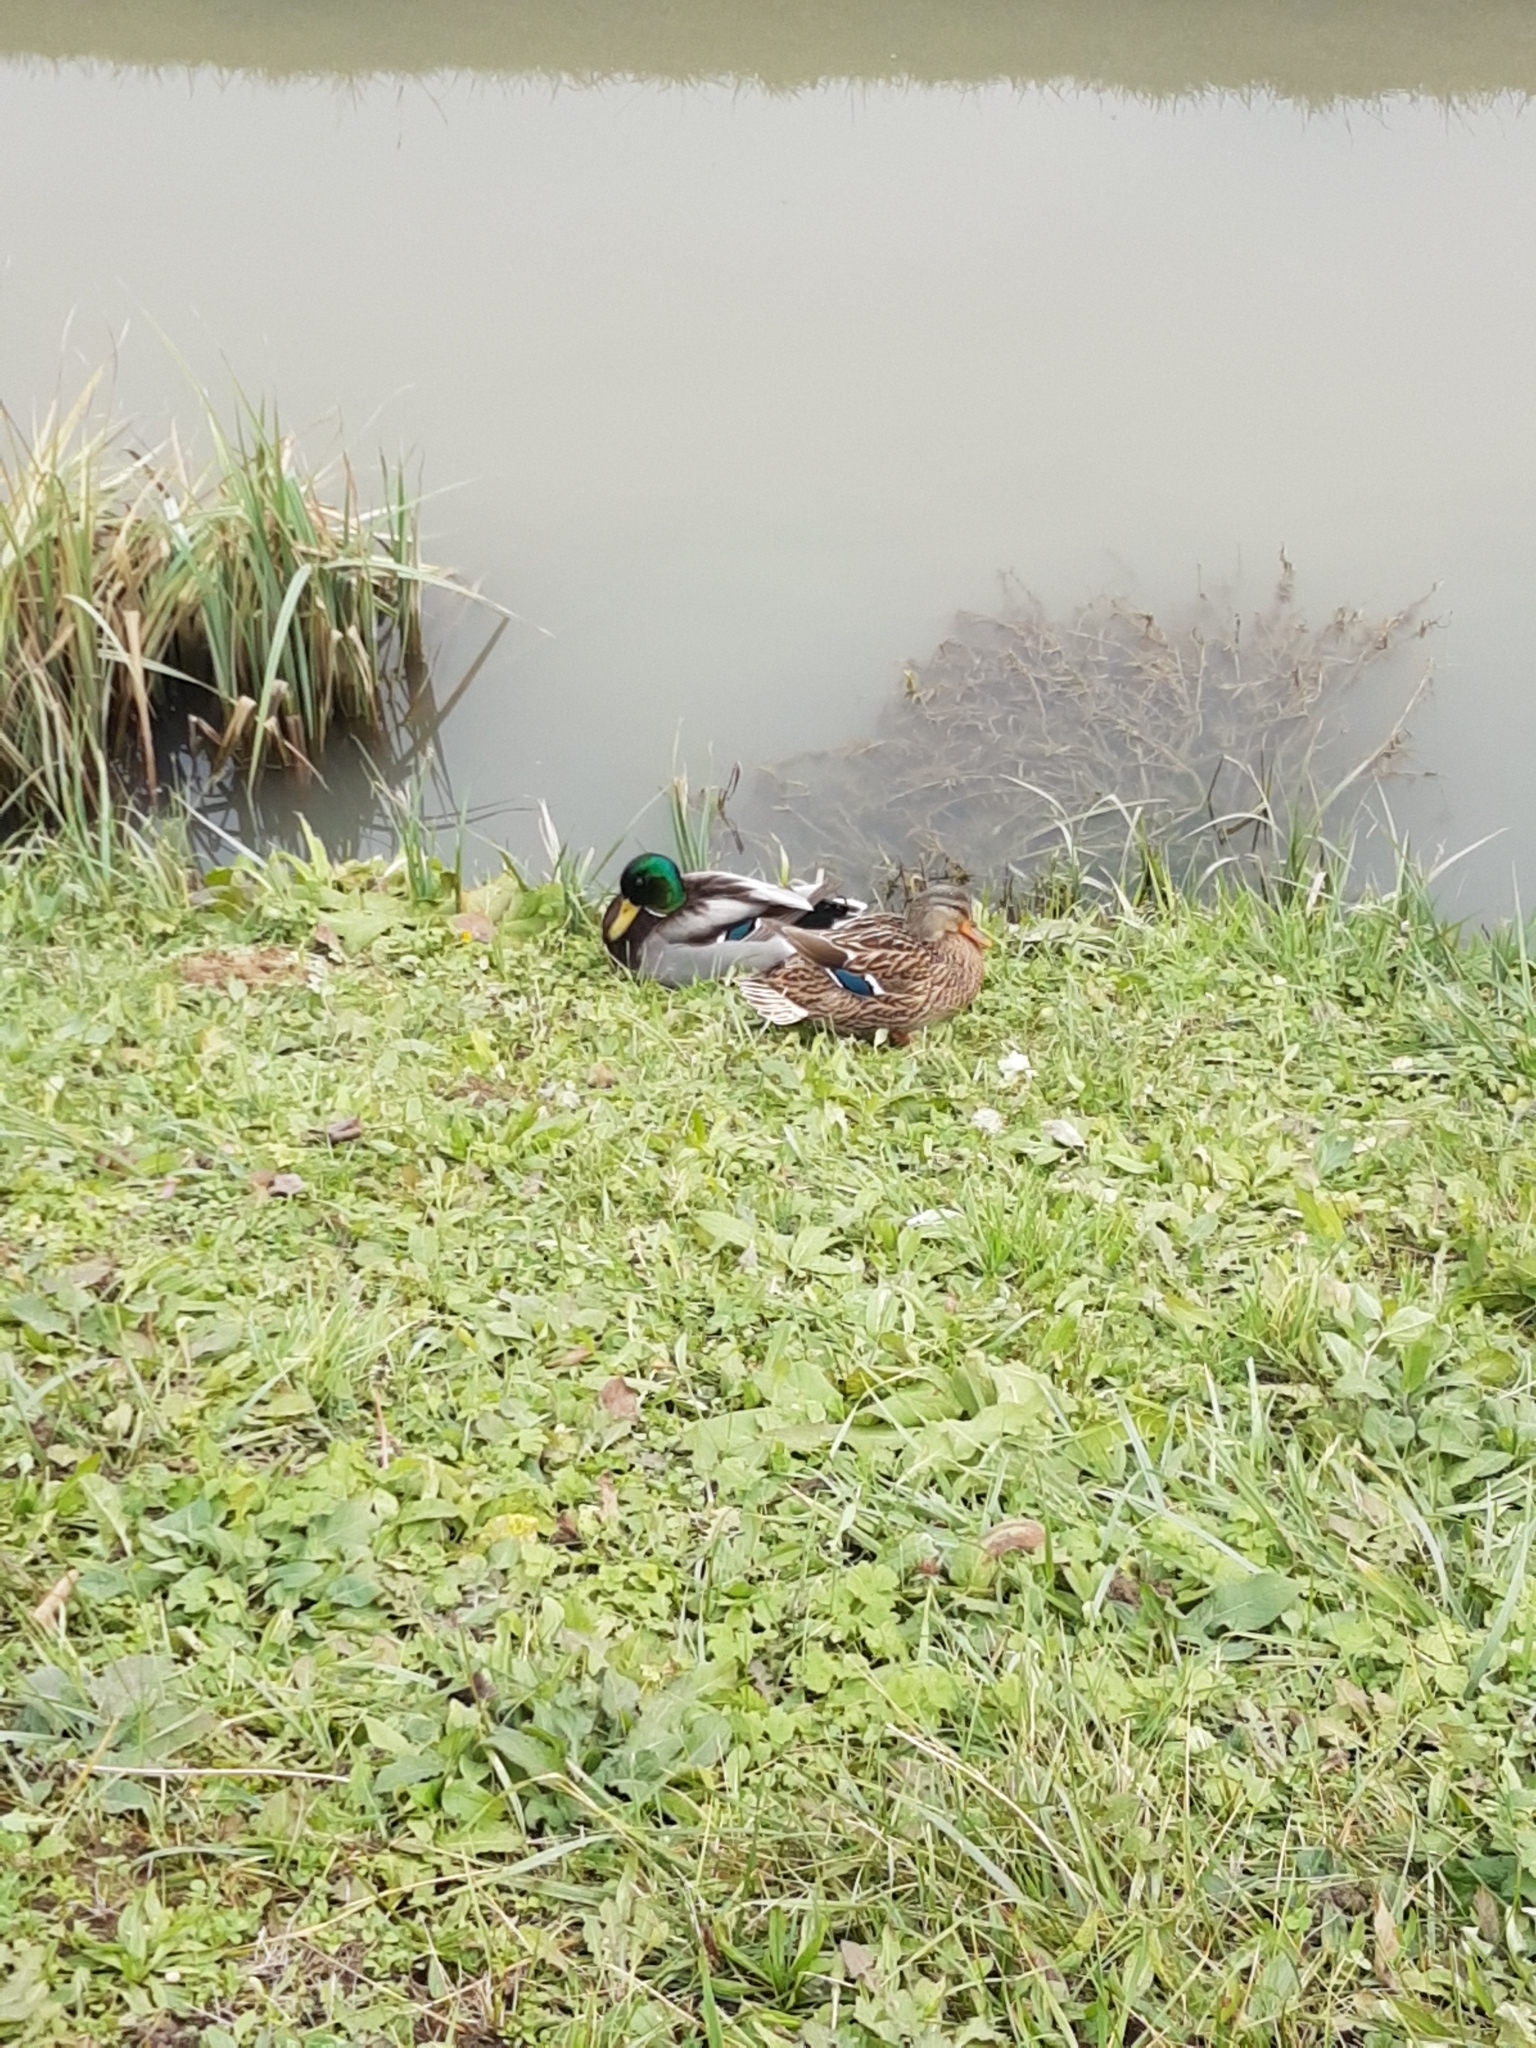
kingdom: Animalia
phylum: Chordata
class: Aves
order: Anseriformes
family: Anatidae
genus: Anas
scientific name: Anas platyrhynchos
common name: Mallard
